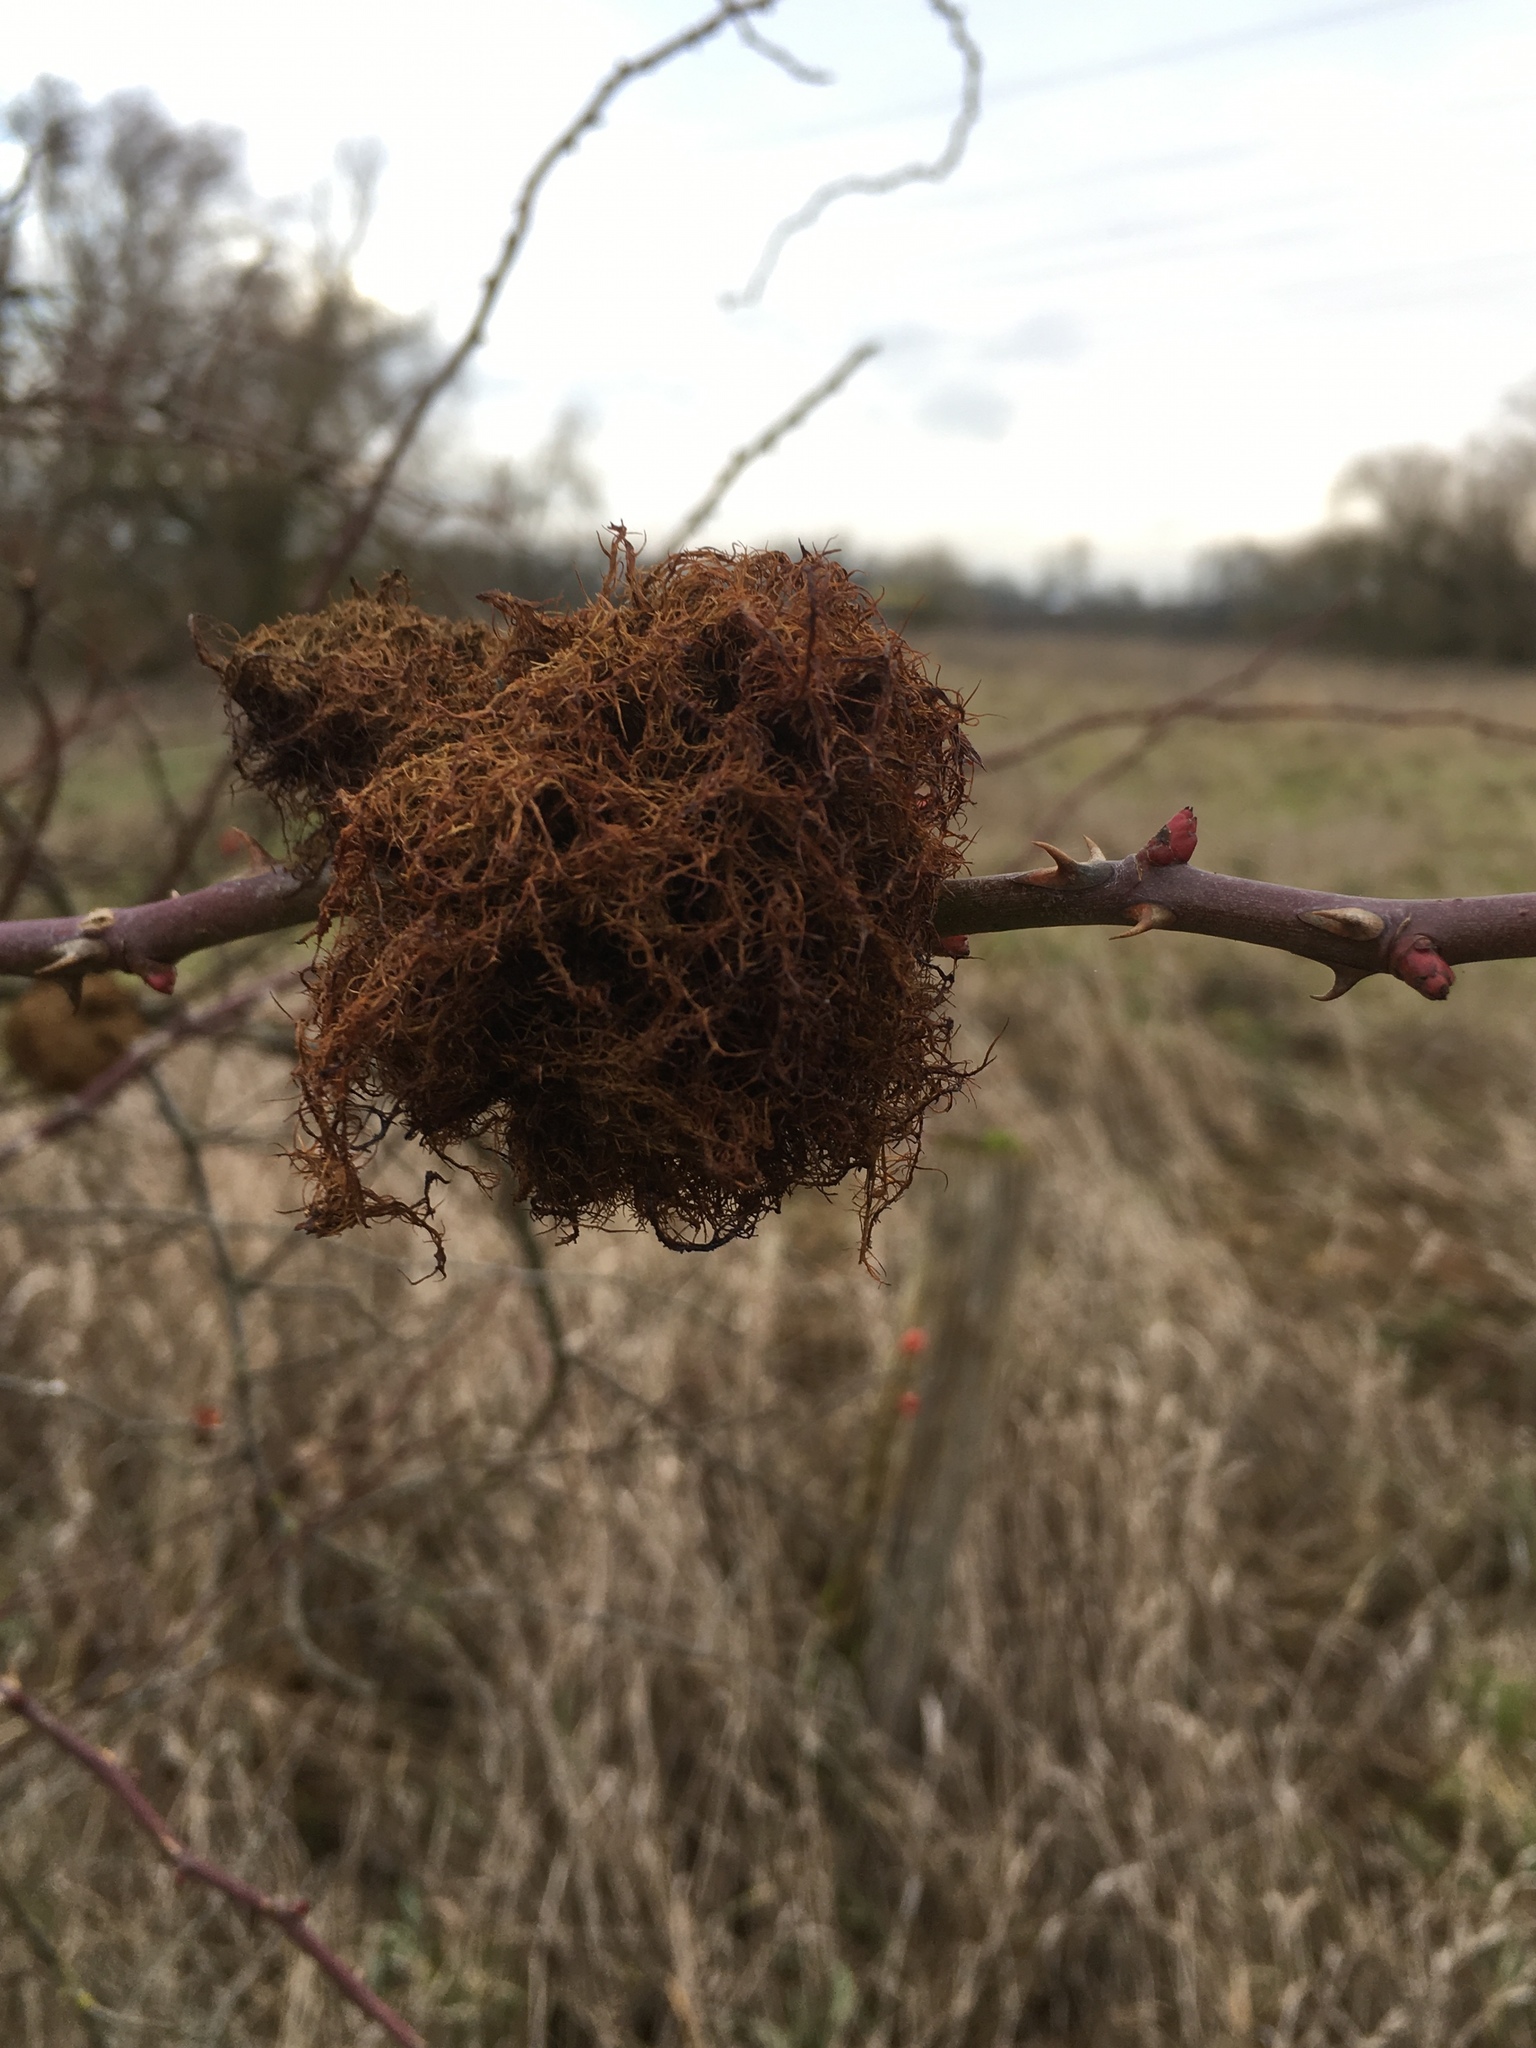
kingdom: Animalia
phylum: Arthropoda
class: Insecta
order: Hymenoptera
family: Cynipidae
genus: Diplolepis
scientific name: Diplolepis rosae
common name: Bedeguar gall
